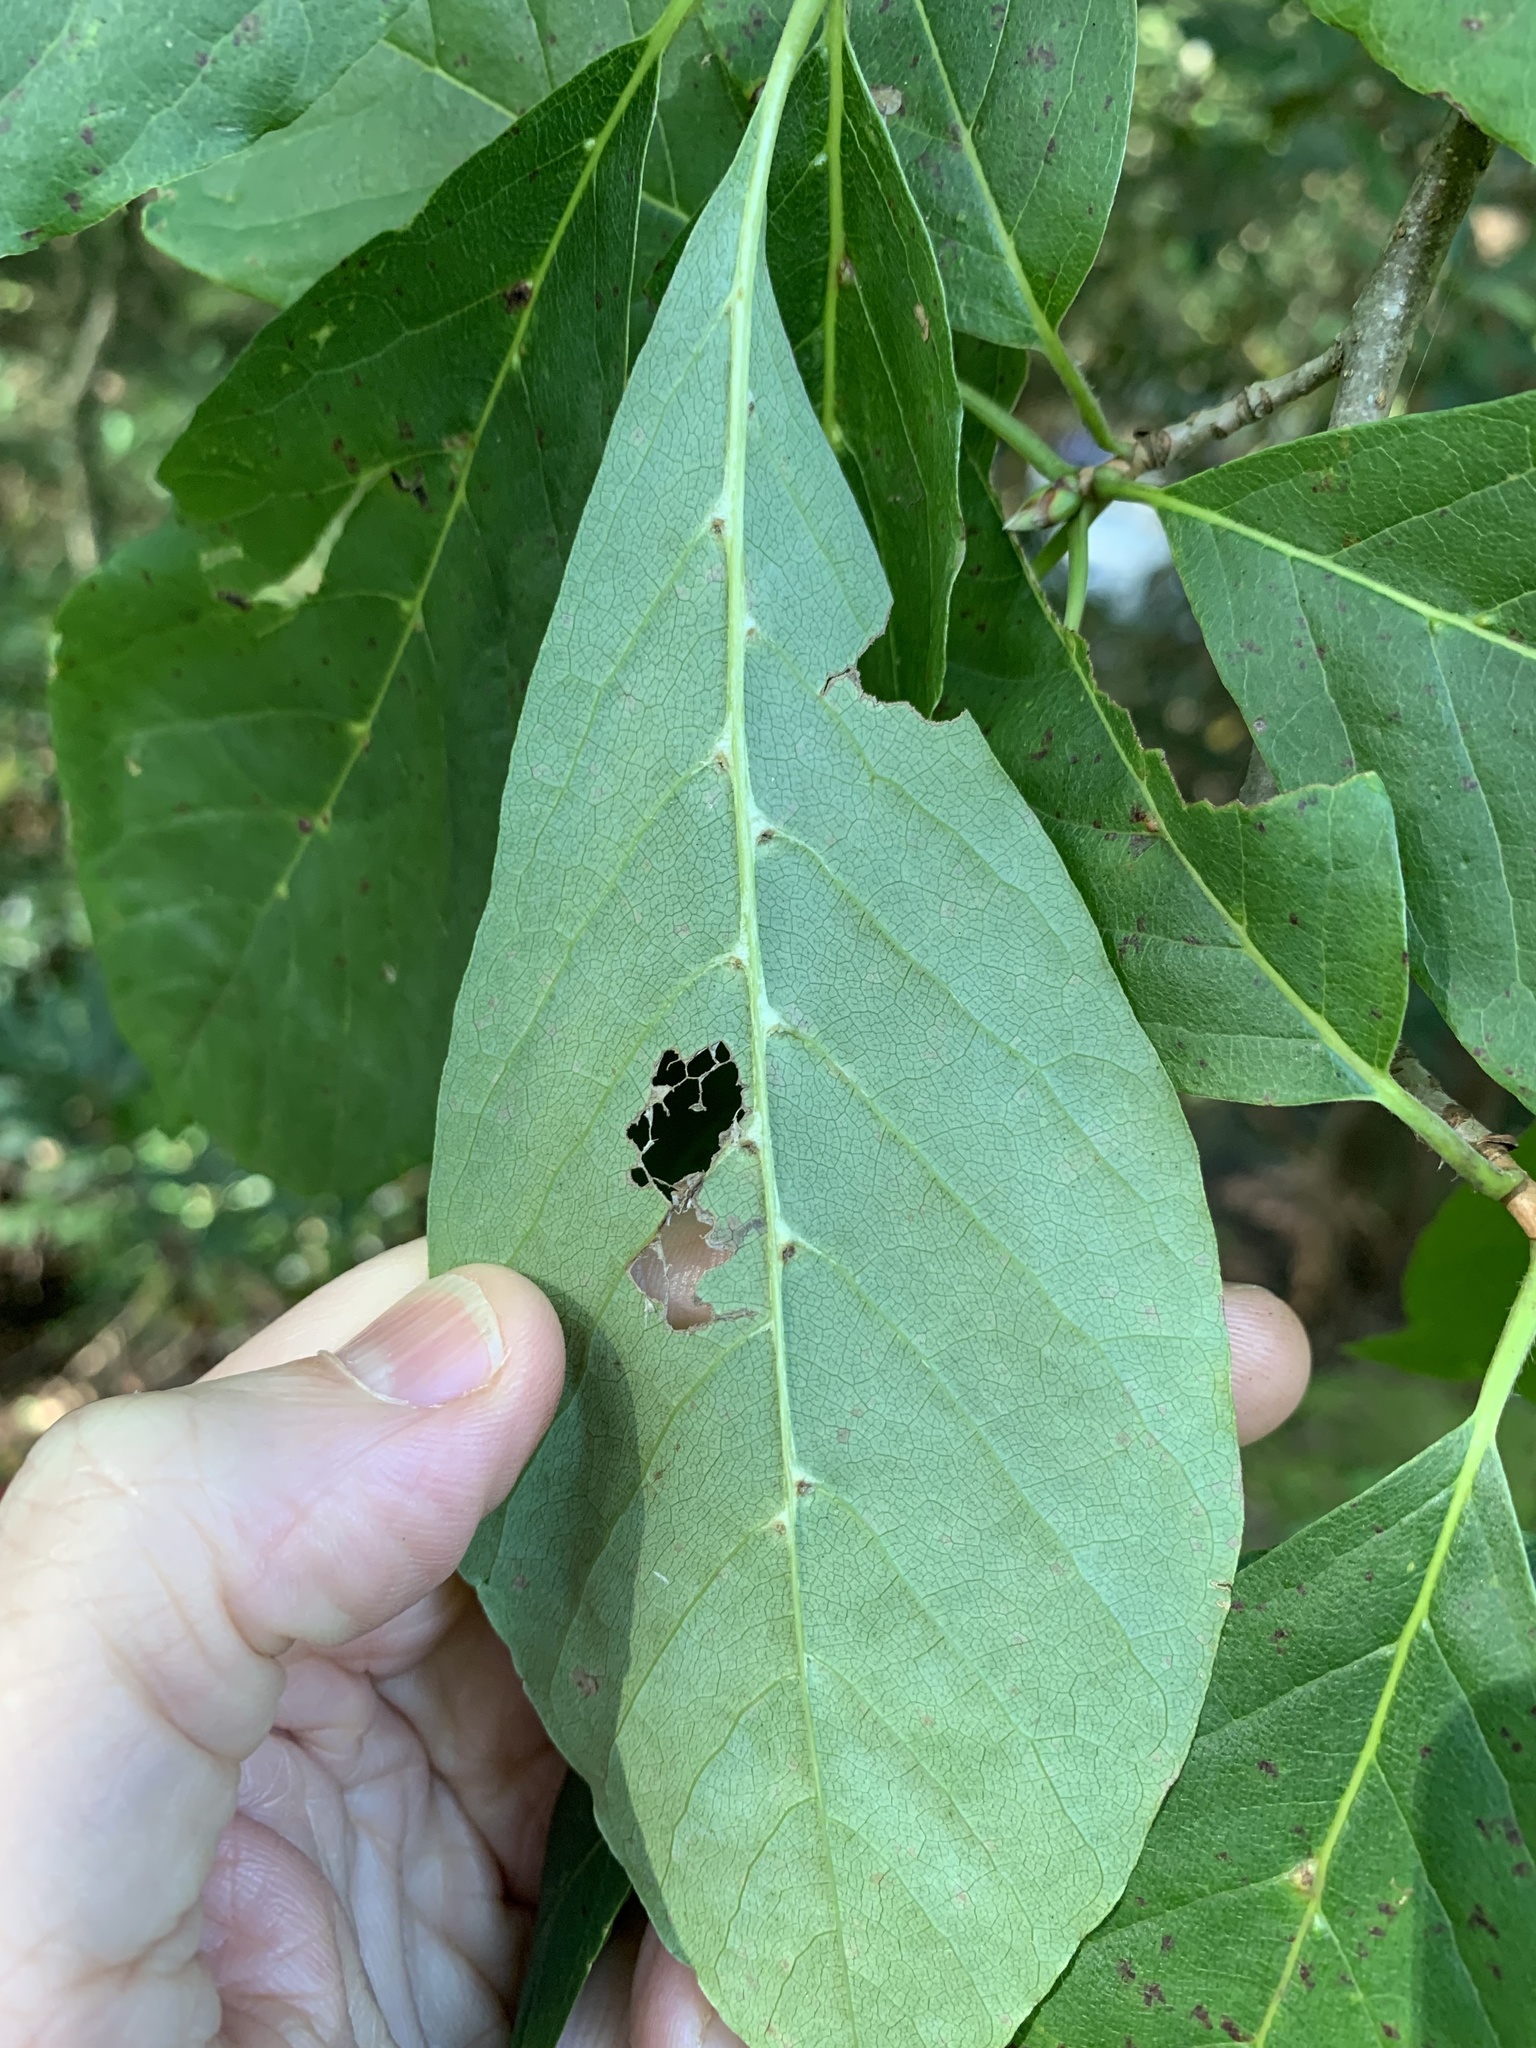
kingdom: Animalia
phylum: Arthropoda
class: Arachnida
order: Trombidiformes
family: Eriophyidae
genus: Cenalox
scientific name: Cenalox
